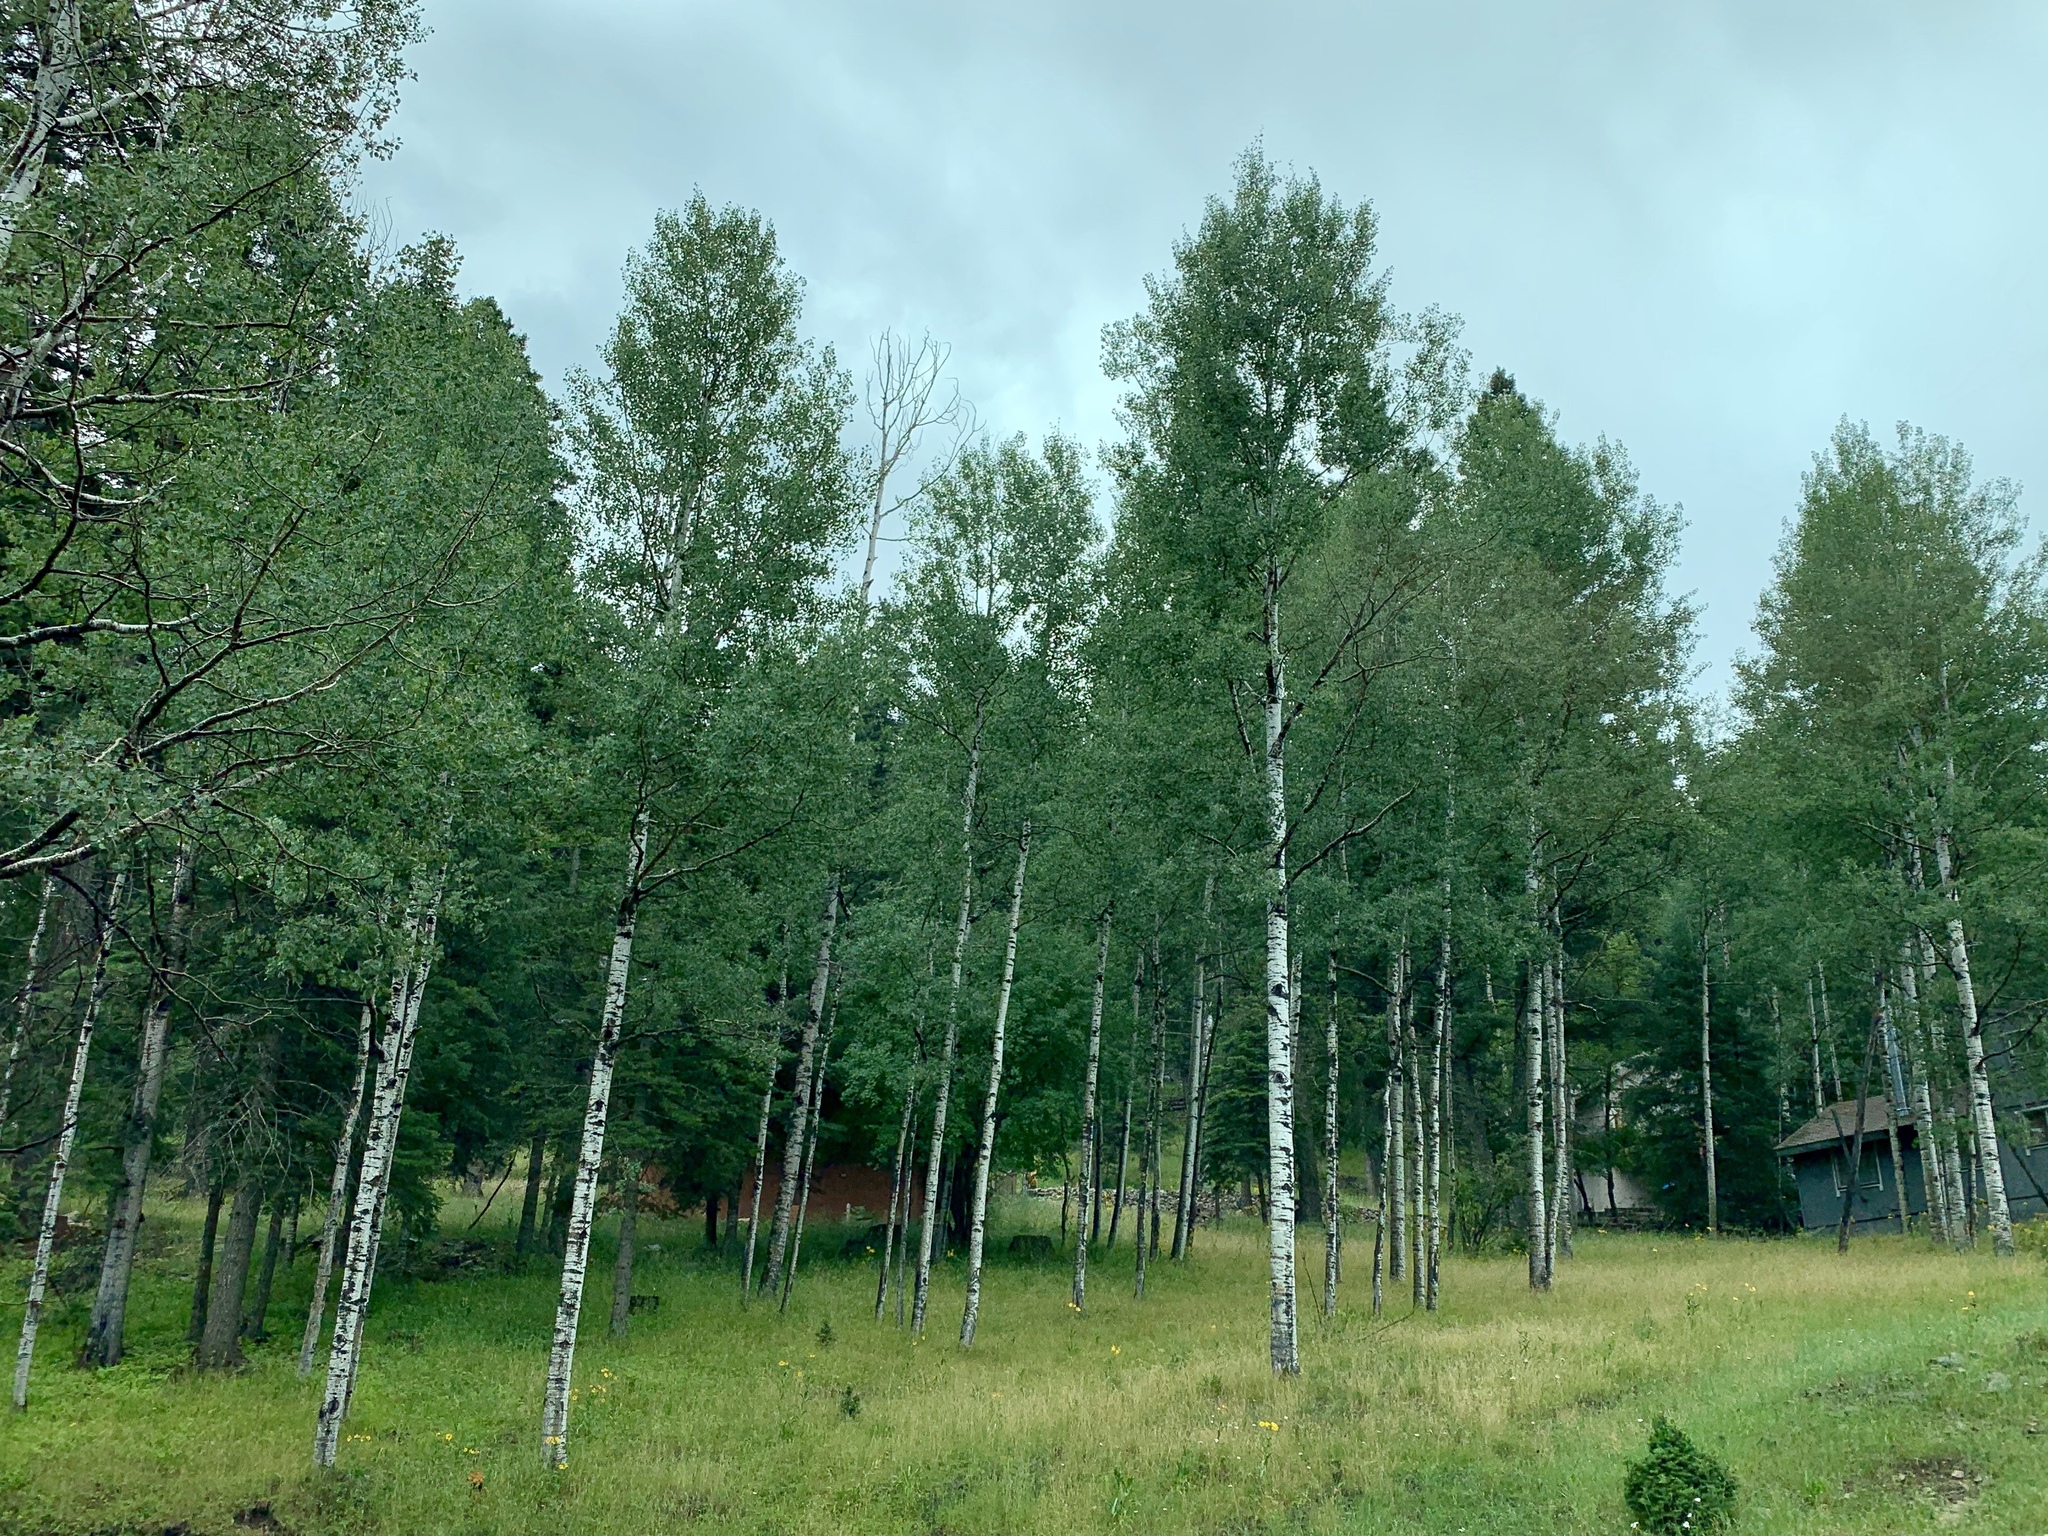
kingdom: Plantae
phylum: Tracheophyta
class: Magnoliopsida
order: Malpighiales
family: Salicaceae
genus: Populus
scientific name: Populus tremuloides
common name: Quaking aspen
